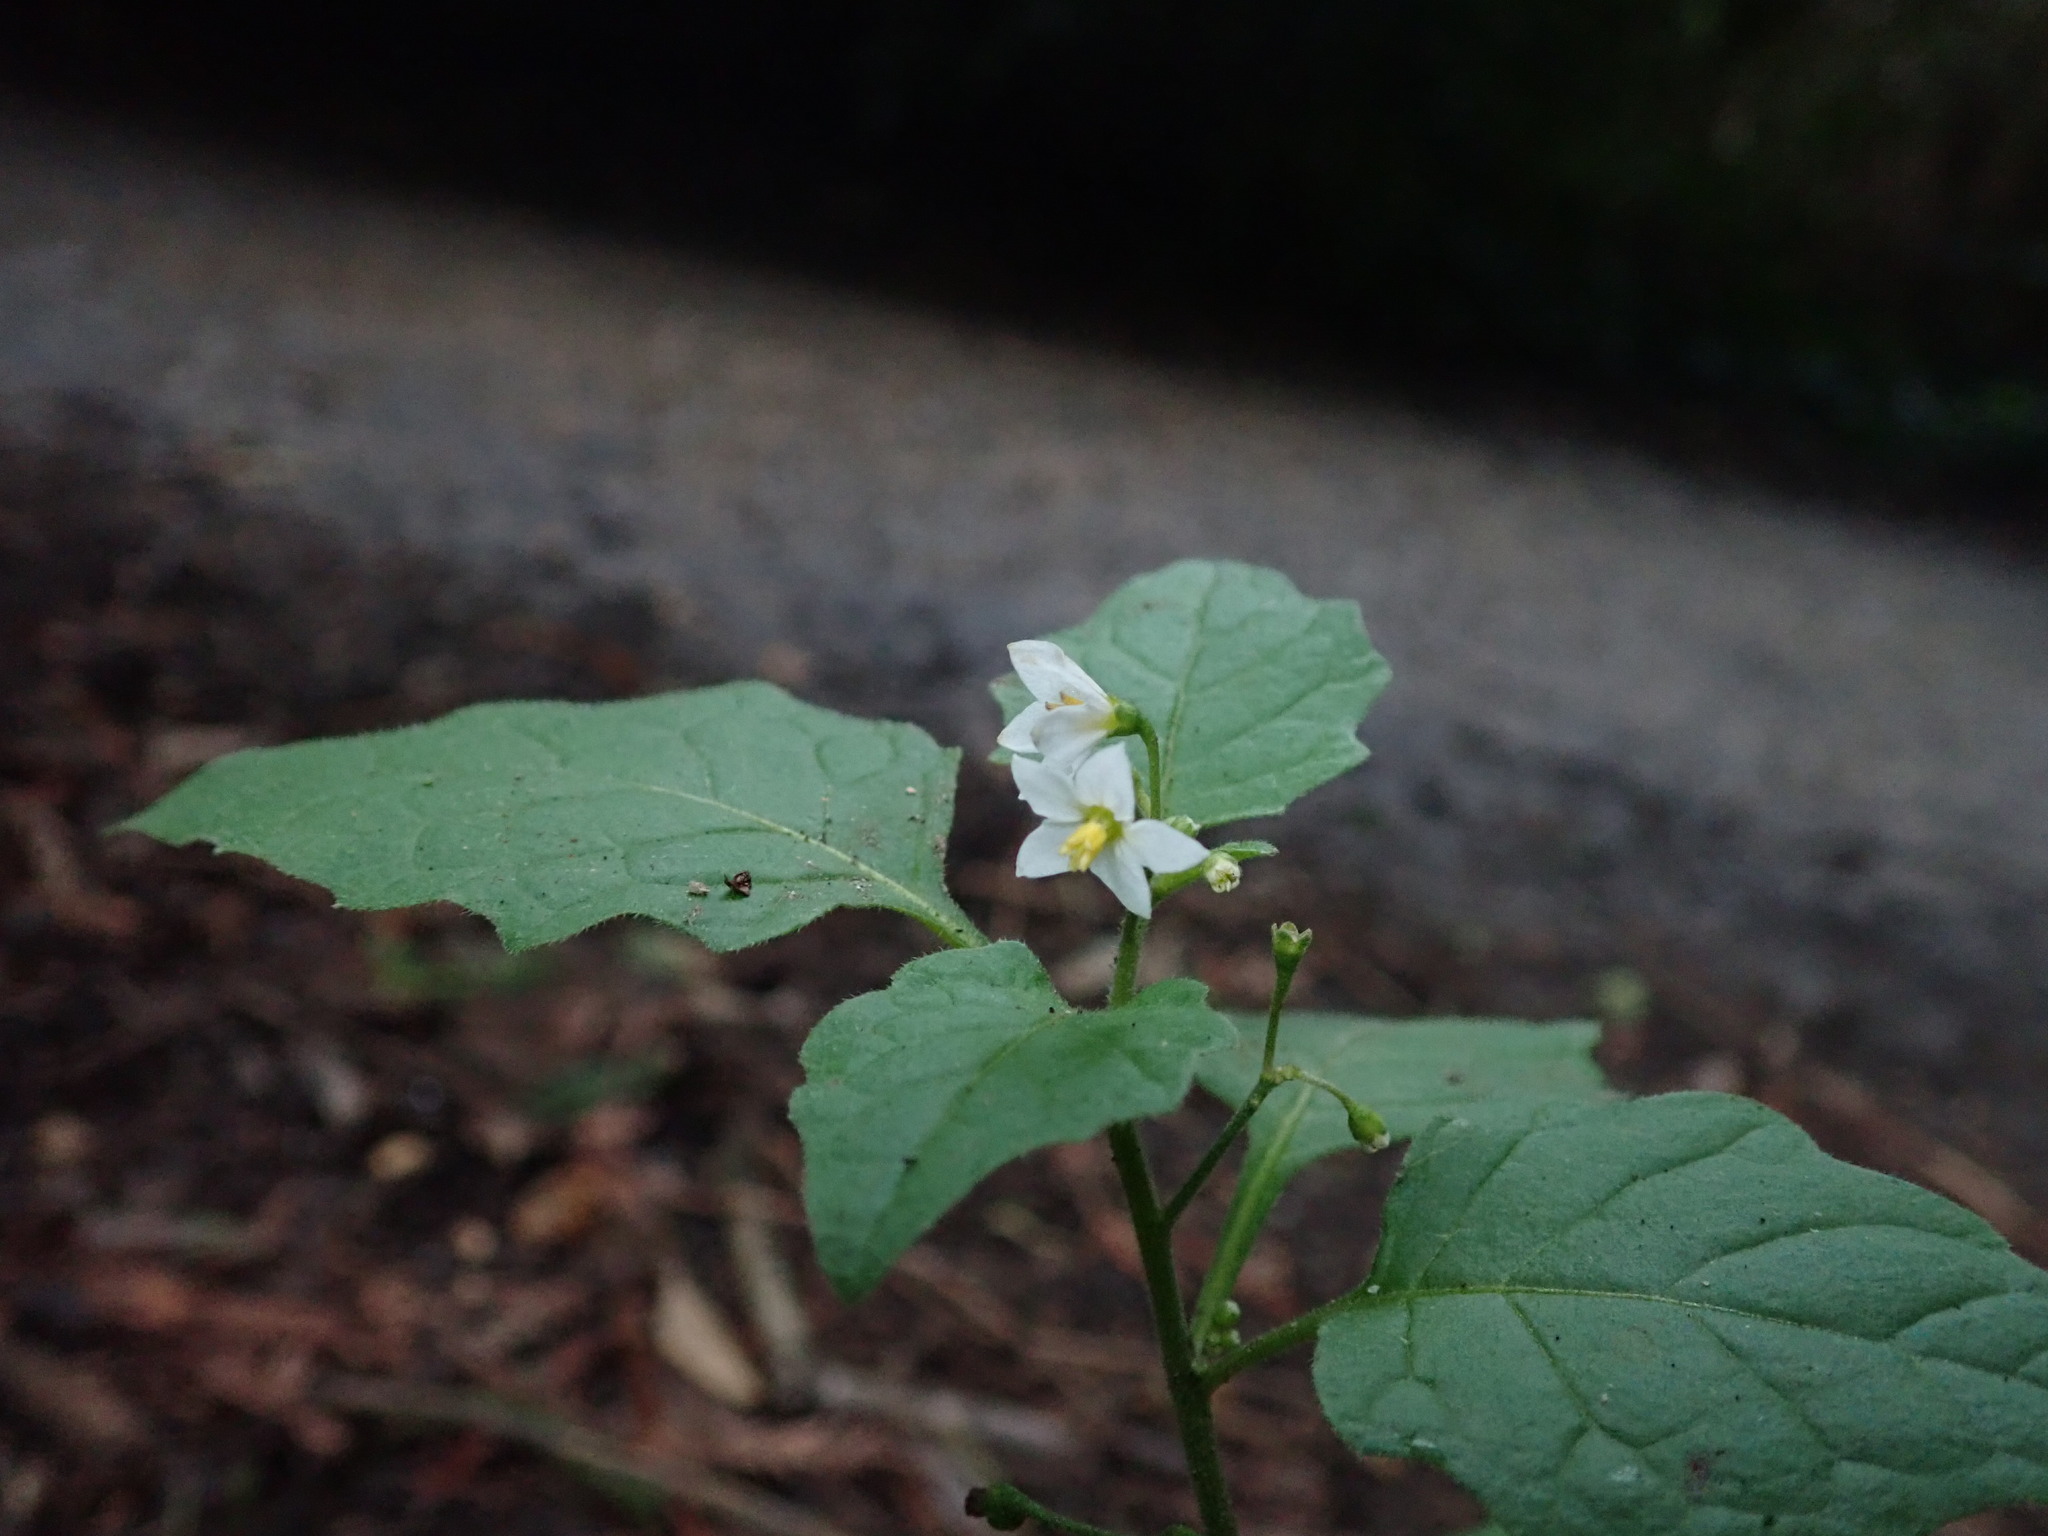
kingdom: Plantae
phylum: Tracheophyta
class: Magnoliopsida
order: Solanales
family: Solanaceae
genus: Solanum
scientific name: Solanum nigrum
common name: Black nightshade
